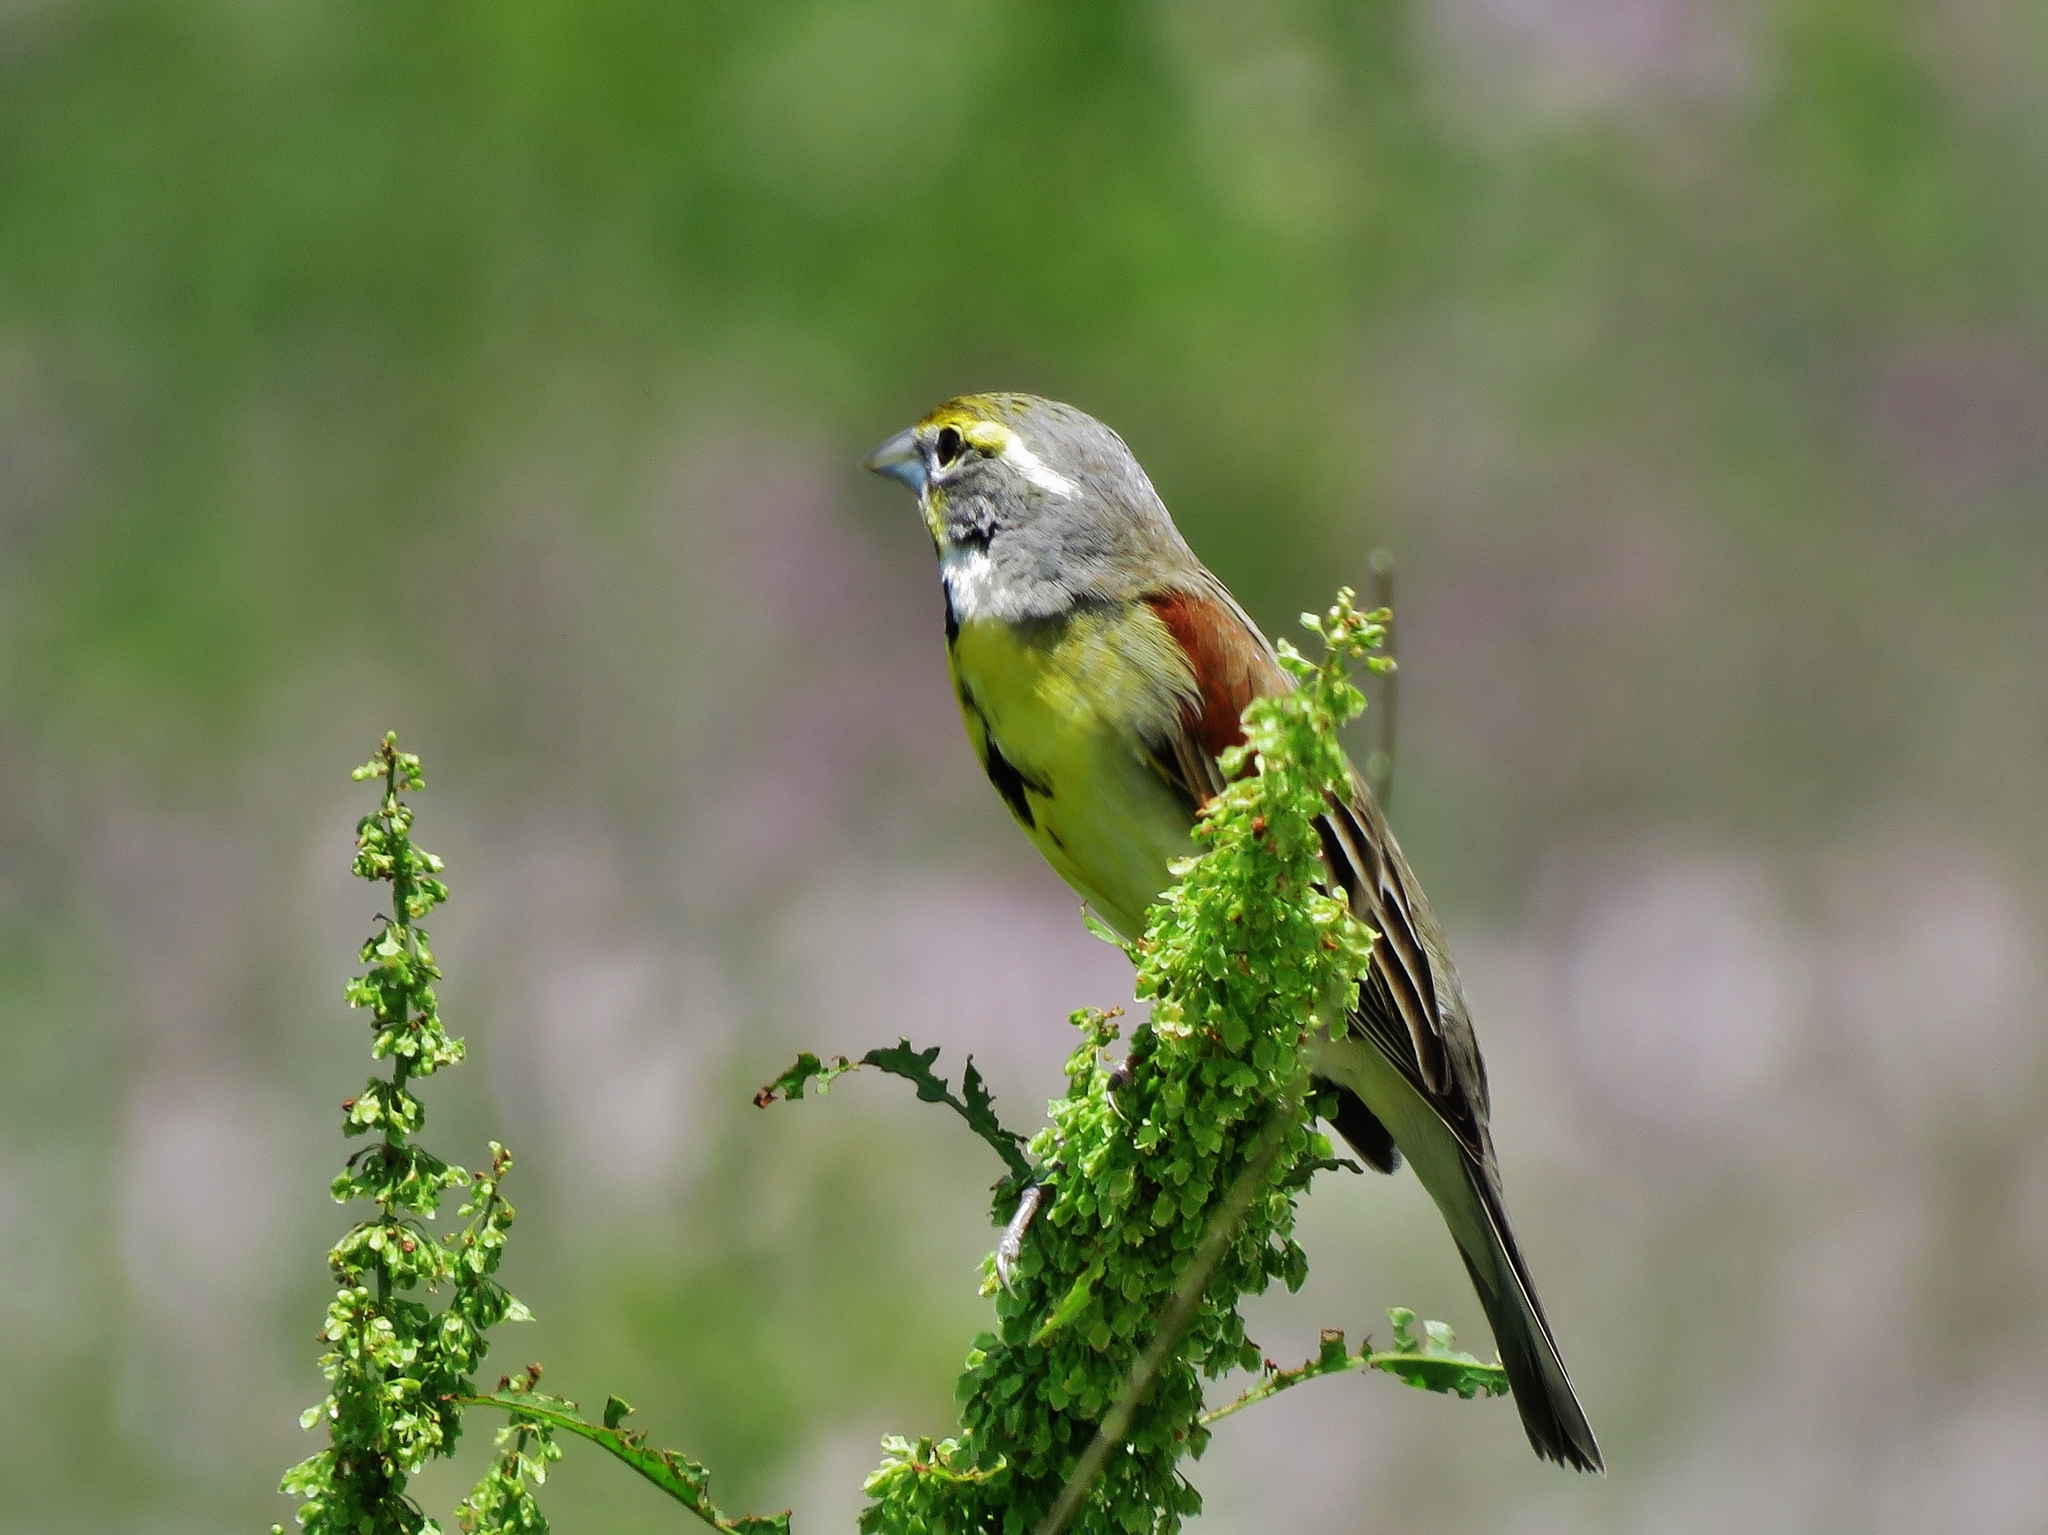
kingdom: Animalia
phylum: Chordata
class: Aves
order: Passeriformes
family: Cardinalidae
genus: Spiza
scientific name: Spiza americana
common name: Dickcissel
